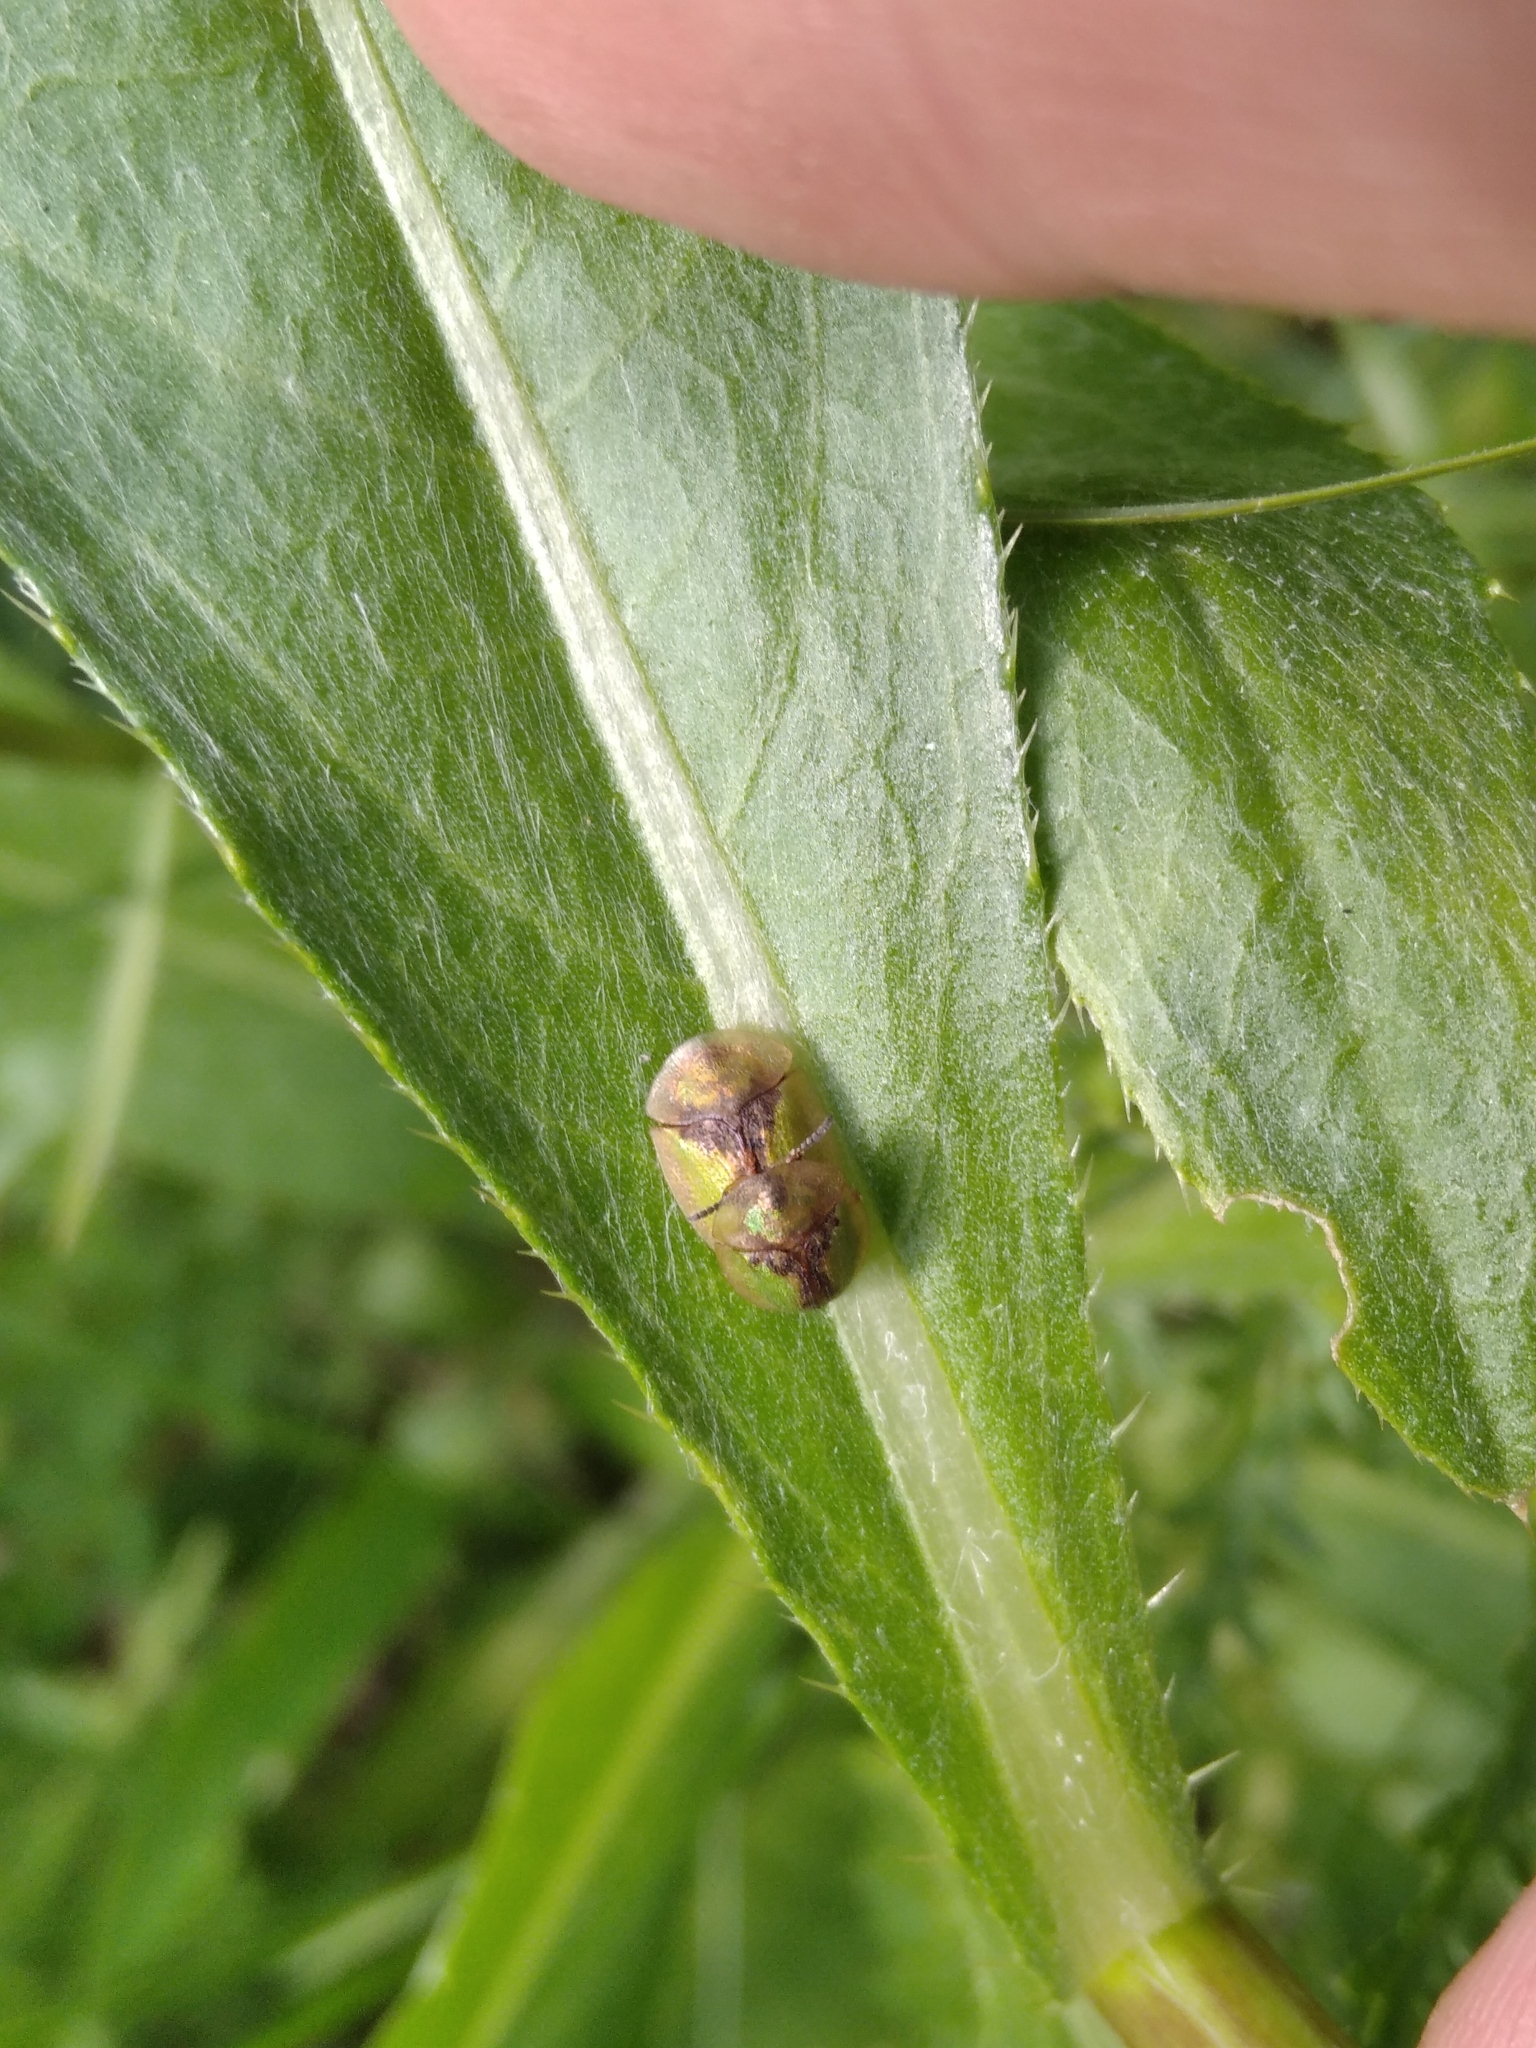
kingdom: Animalia
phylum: Arthropoda
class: Insecta
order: Coleoptera
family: Chrysomelidae
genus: Cassida
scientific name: Cassida vibex
